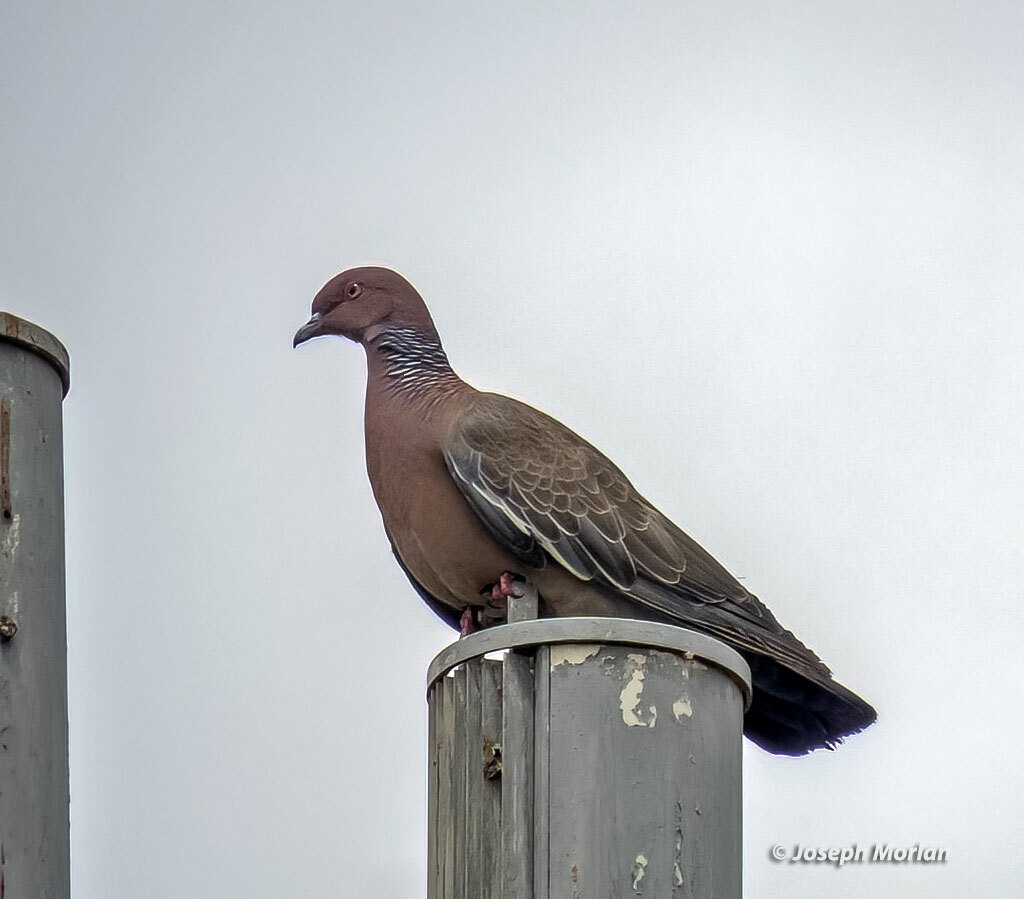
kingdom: Animalia
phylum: Chordata
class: Aves
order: Columbiformes
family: Columbidae
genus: Patagioenas
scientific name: Patagioenas picazuro
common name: Picazuro pigeon
